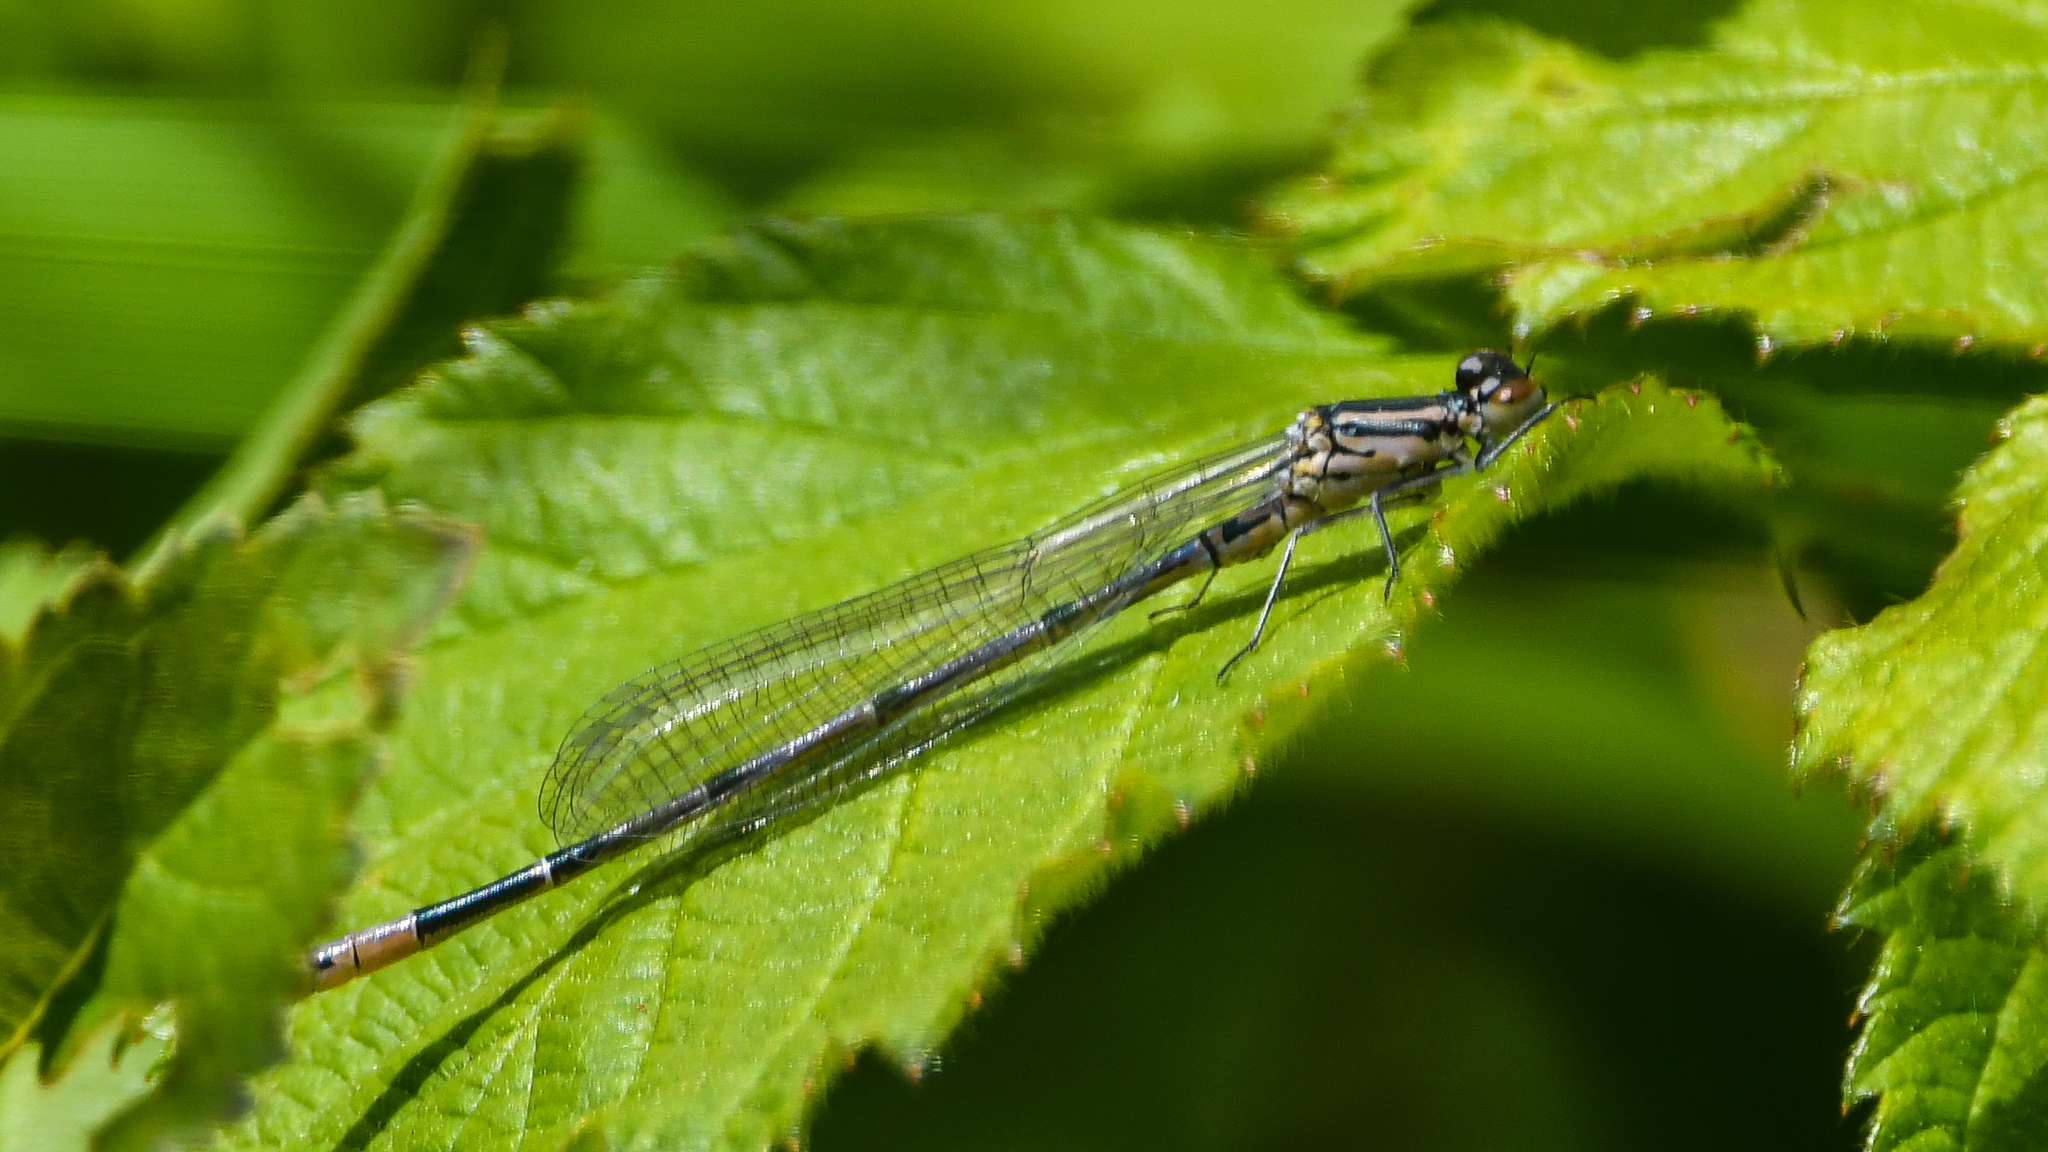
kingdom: Animalia
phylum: Arthropoda
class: Insecta
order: Odonata
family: Coenagrionidae
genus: Coenagrion
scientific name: Coenagrion puella
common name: Azure damselfly
